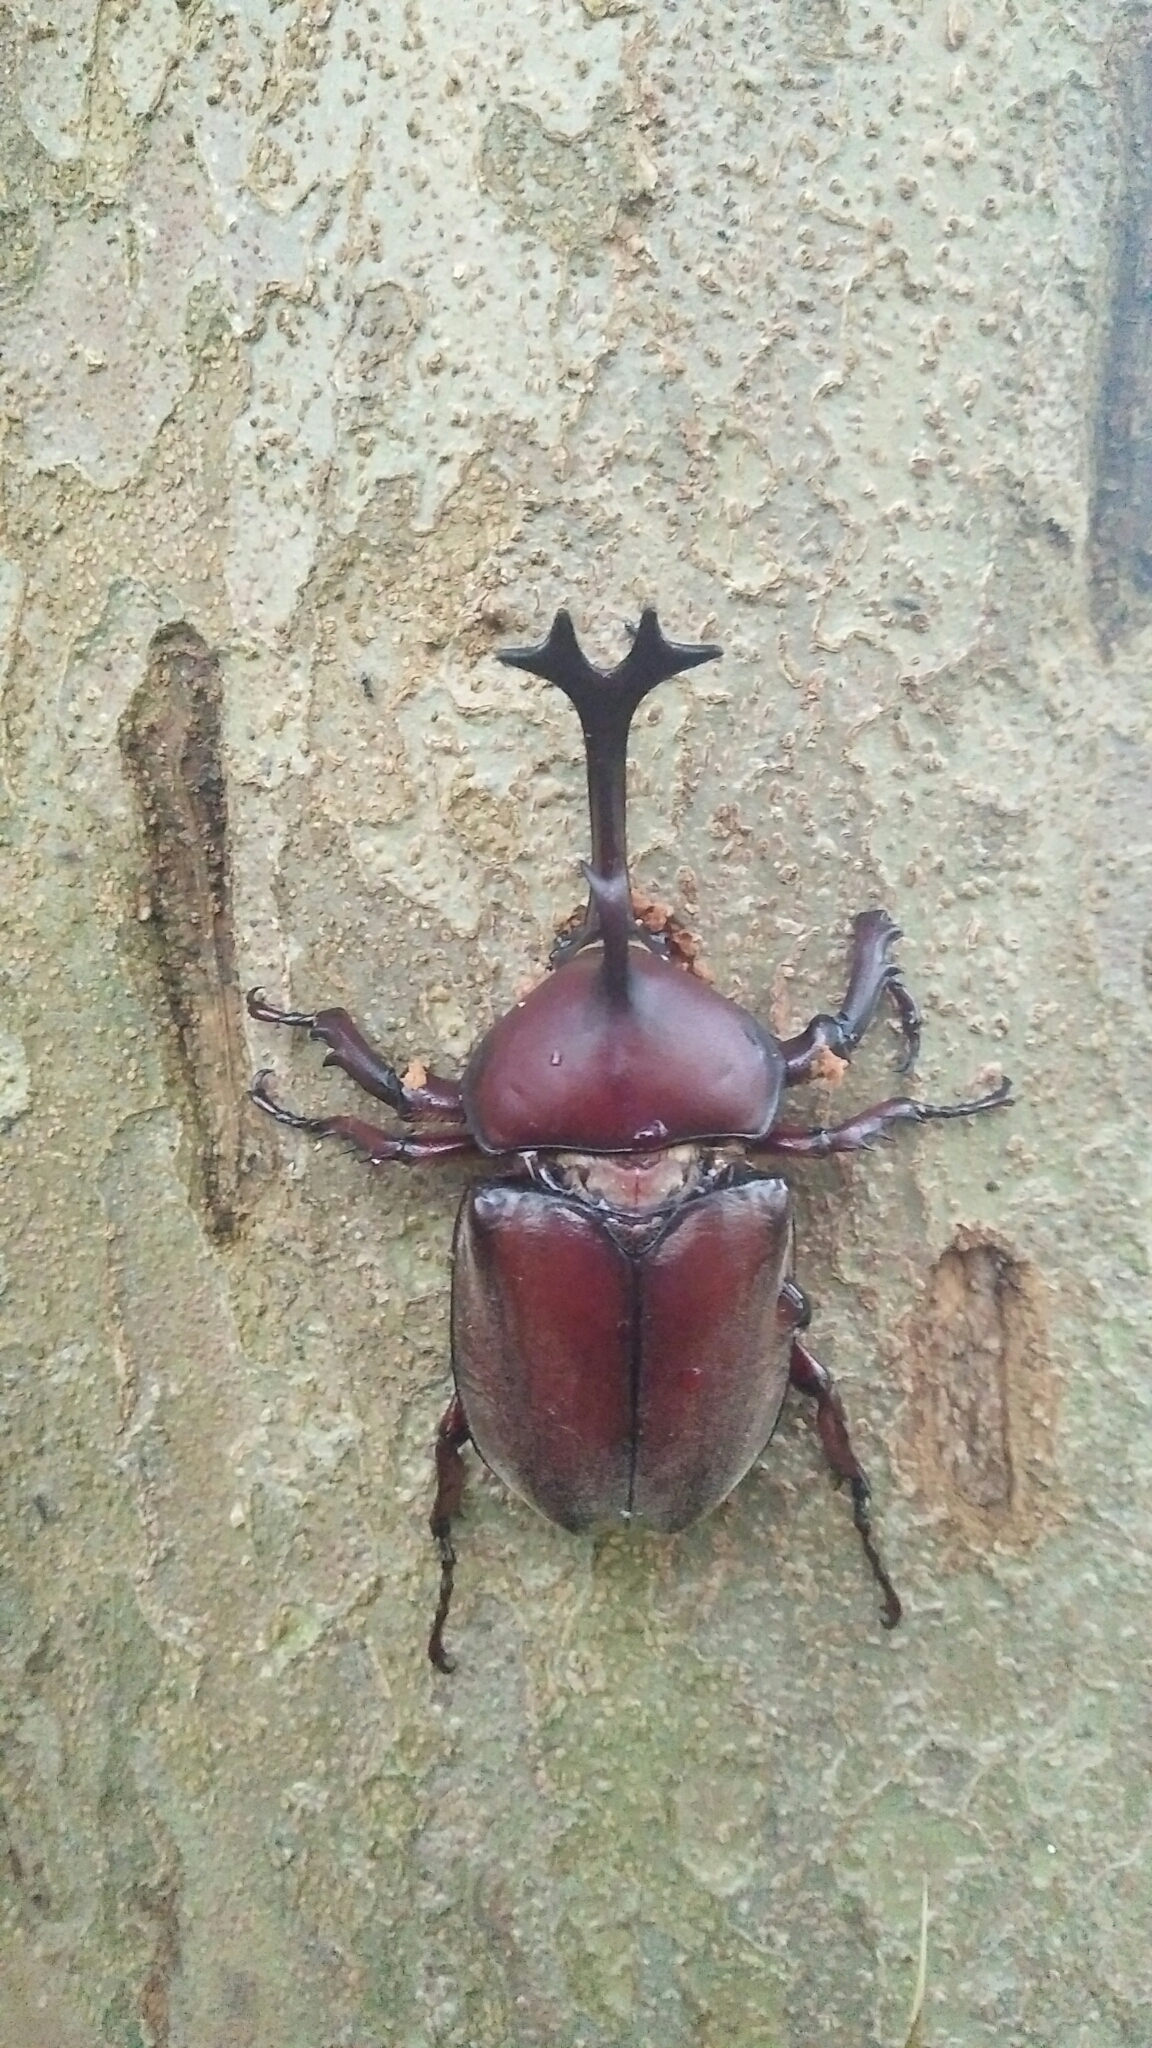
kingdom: Animalia
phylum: Arthropoda
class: Insecta
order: Coleoptera
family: Scarabaeidae
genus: Trypoxylus
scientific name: Trypoxylus dichotomus
